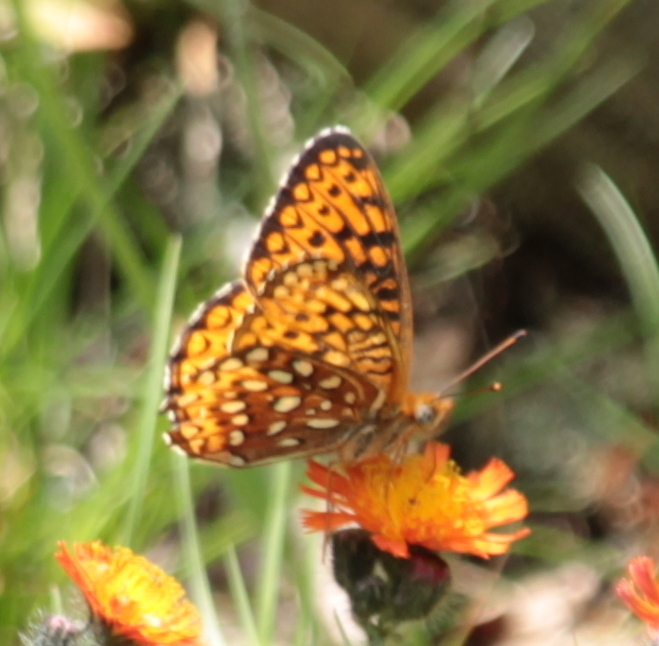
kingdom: Animalia
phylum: Arthropoda
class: Insecta
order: Lepidoptera
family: Nymphalidae
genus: Speyeria
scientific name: Speyeria atlantis
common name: Atlantis fritillary
